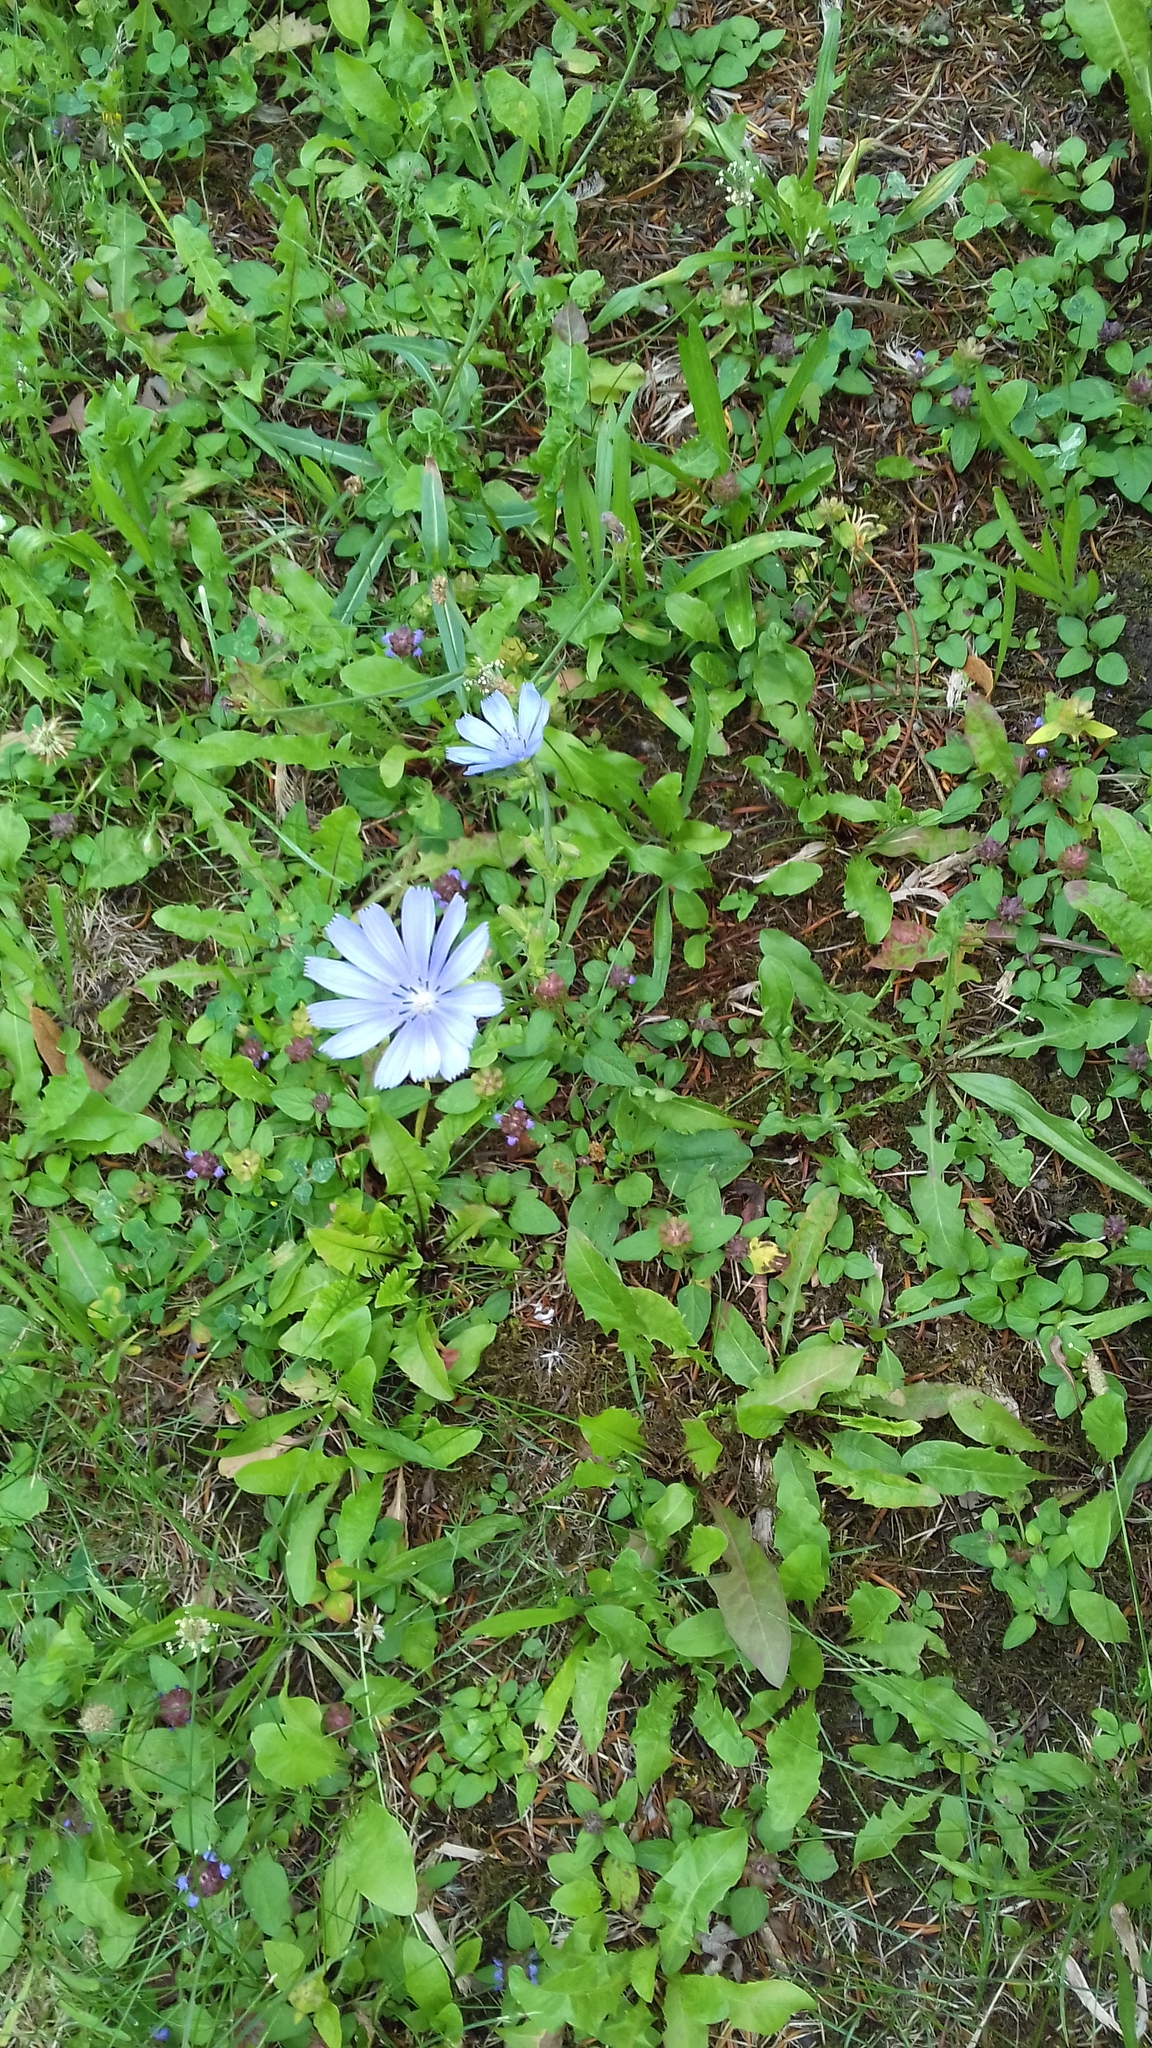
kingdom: Plantae
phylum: Tracheophyta
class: Magnoliopsida
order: Asterales
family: Asteraceae
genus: Cichorium
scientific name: Cichorium intybus
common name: Chicory
